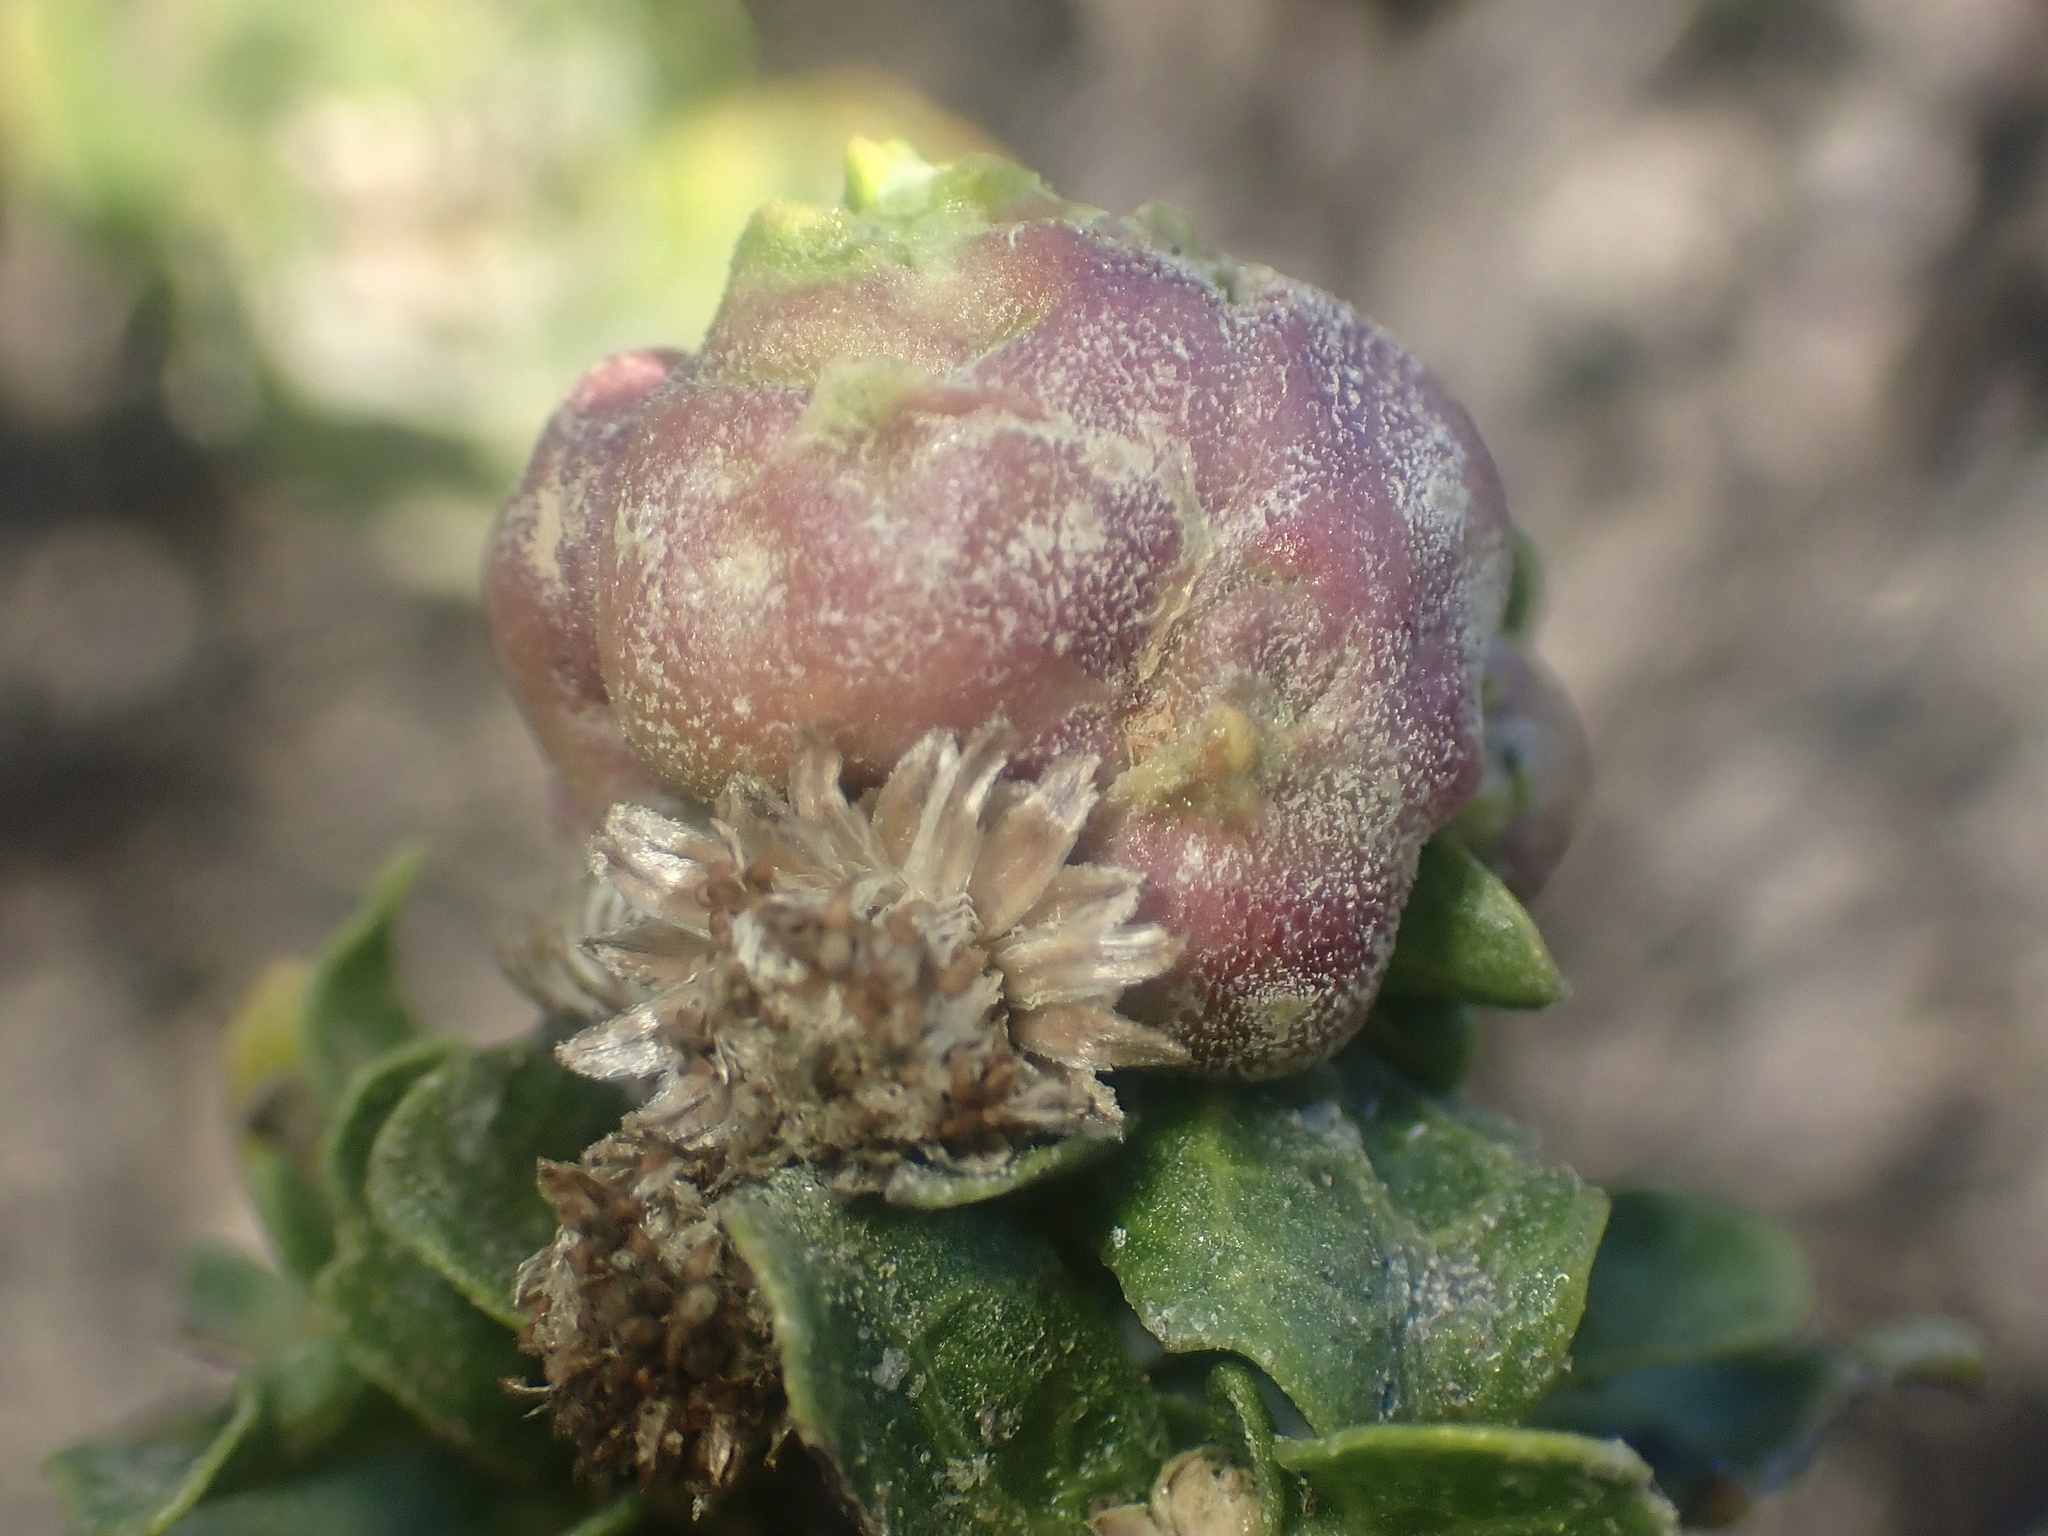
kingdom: Animalia
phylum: Arthropoda
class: Insecta
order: Diptera
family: Cecidomyiidae
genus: Rhopalomyia
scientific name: Rhopalomyia californica
